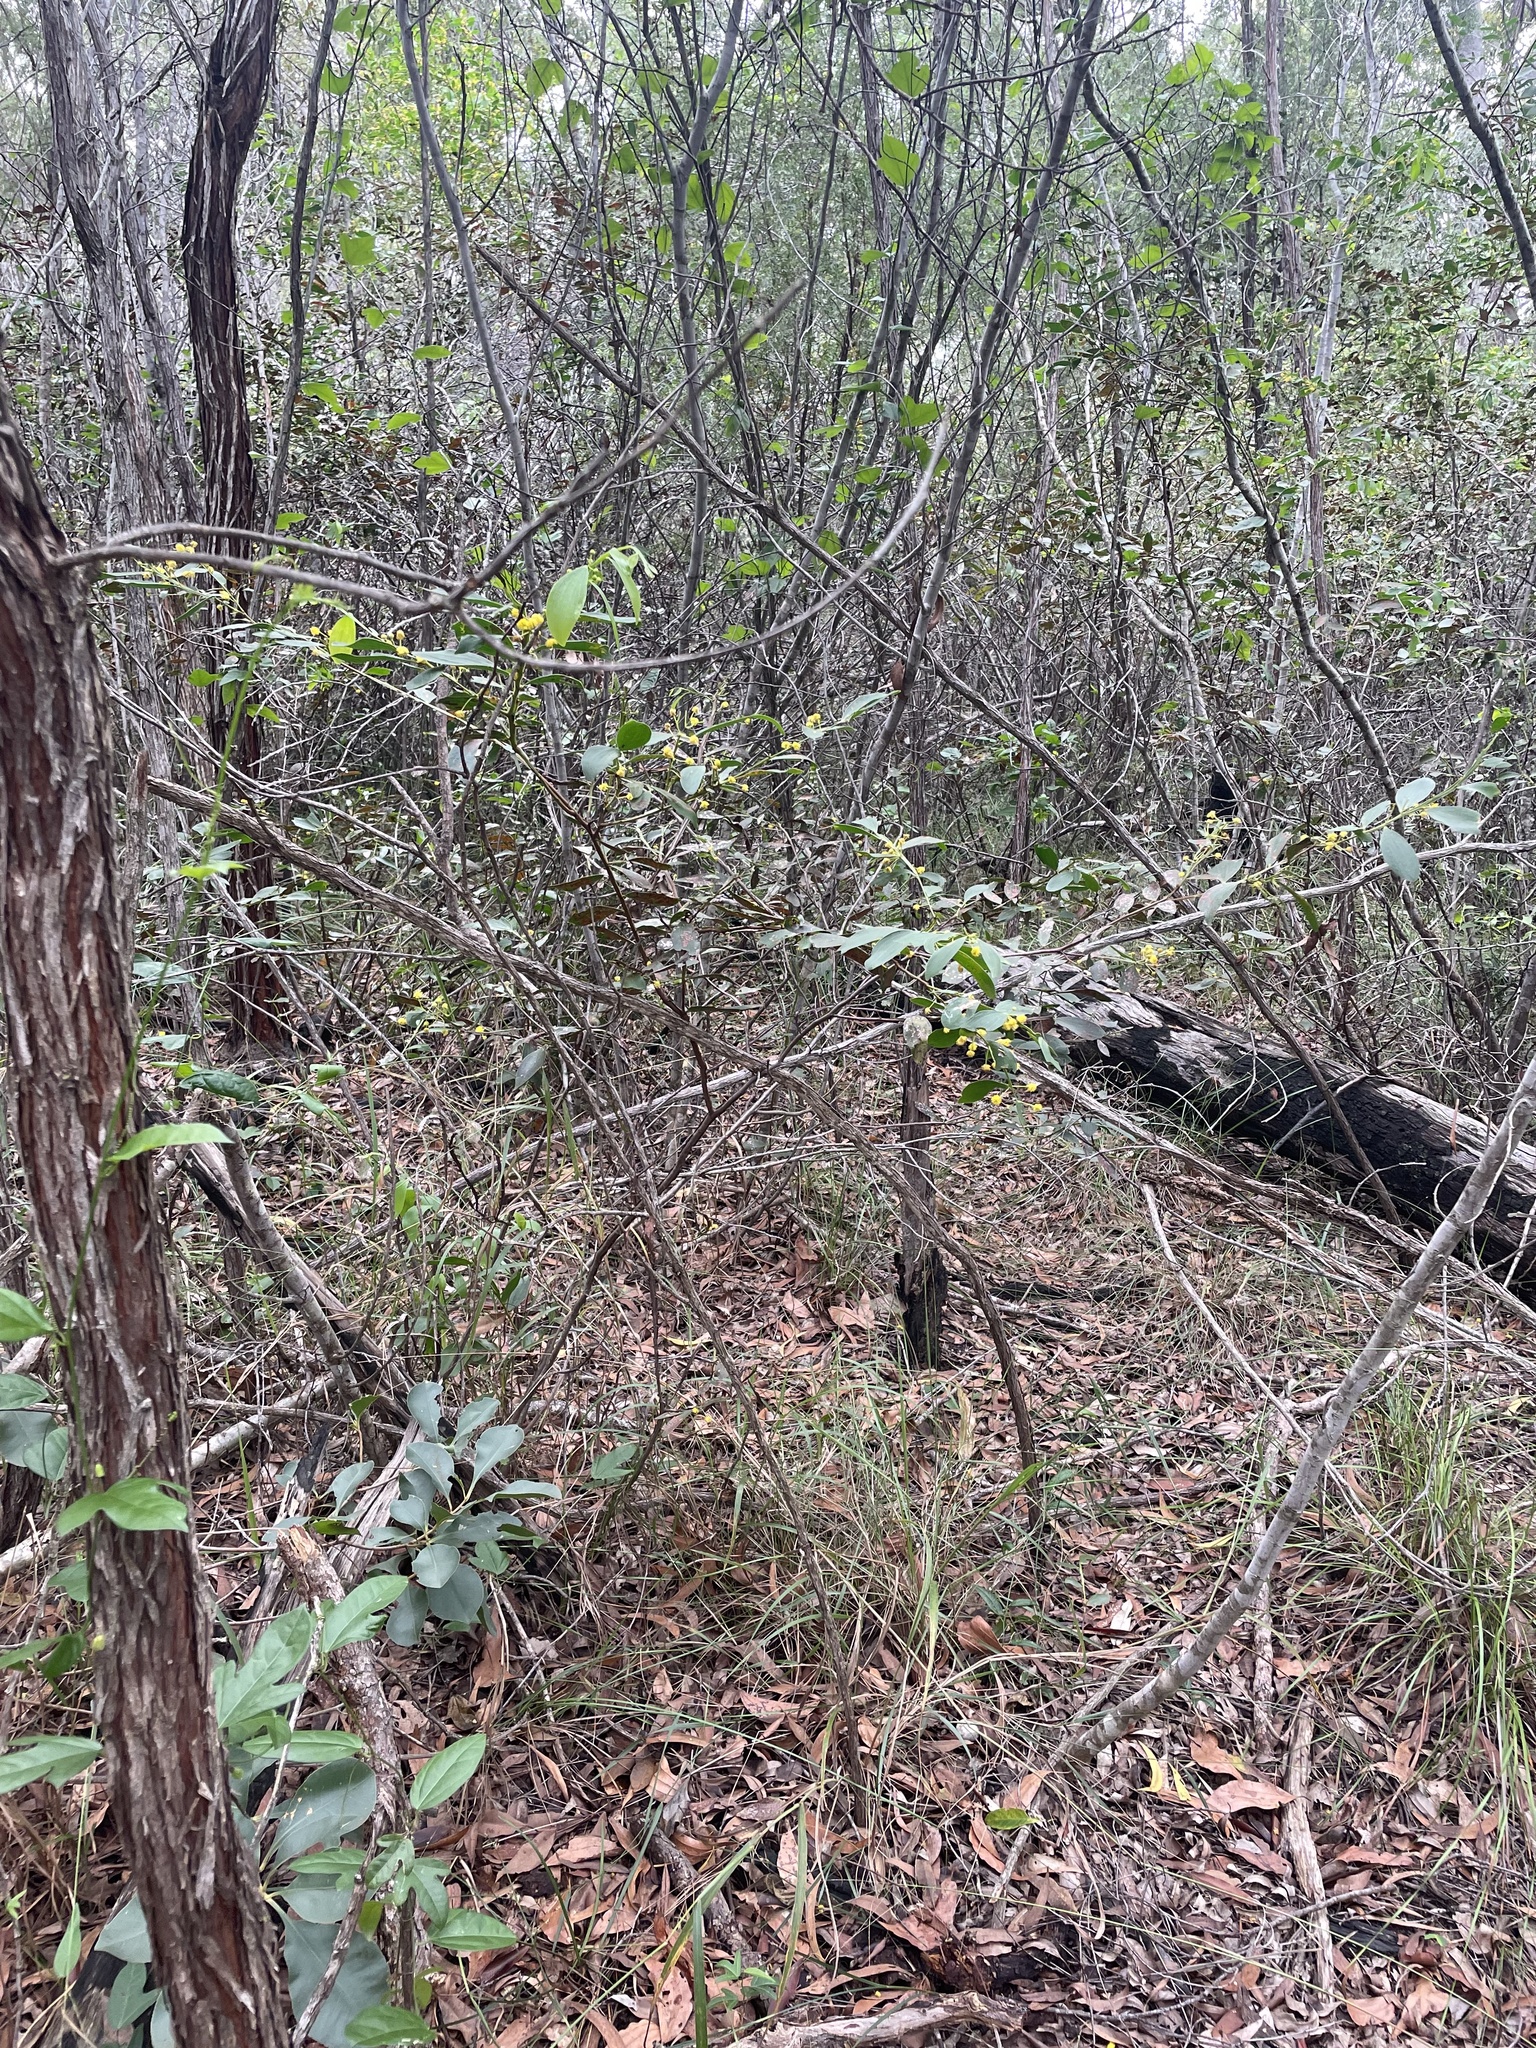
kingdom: Plantae
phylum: Tracheophyta
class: Magnoliopsida
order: Fabales
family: Fabaceae
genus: Acacia
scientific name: Acacia complanata
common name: Flat-stemmed wattle
